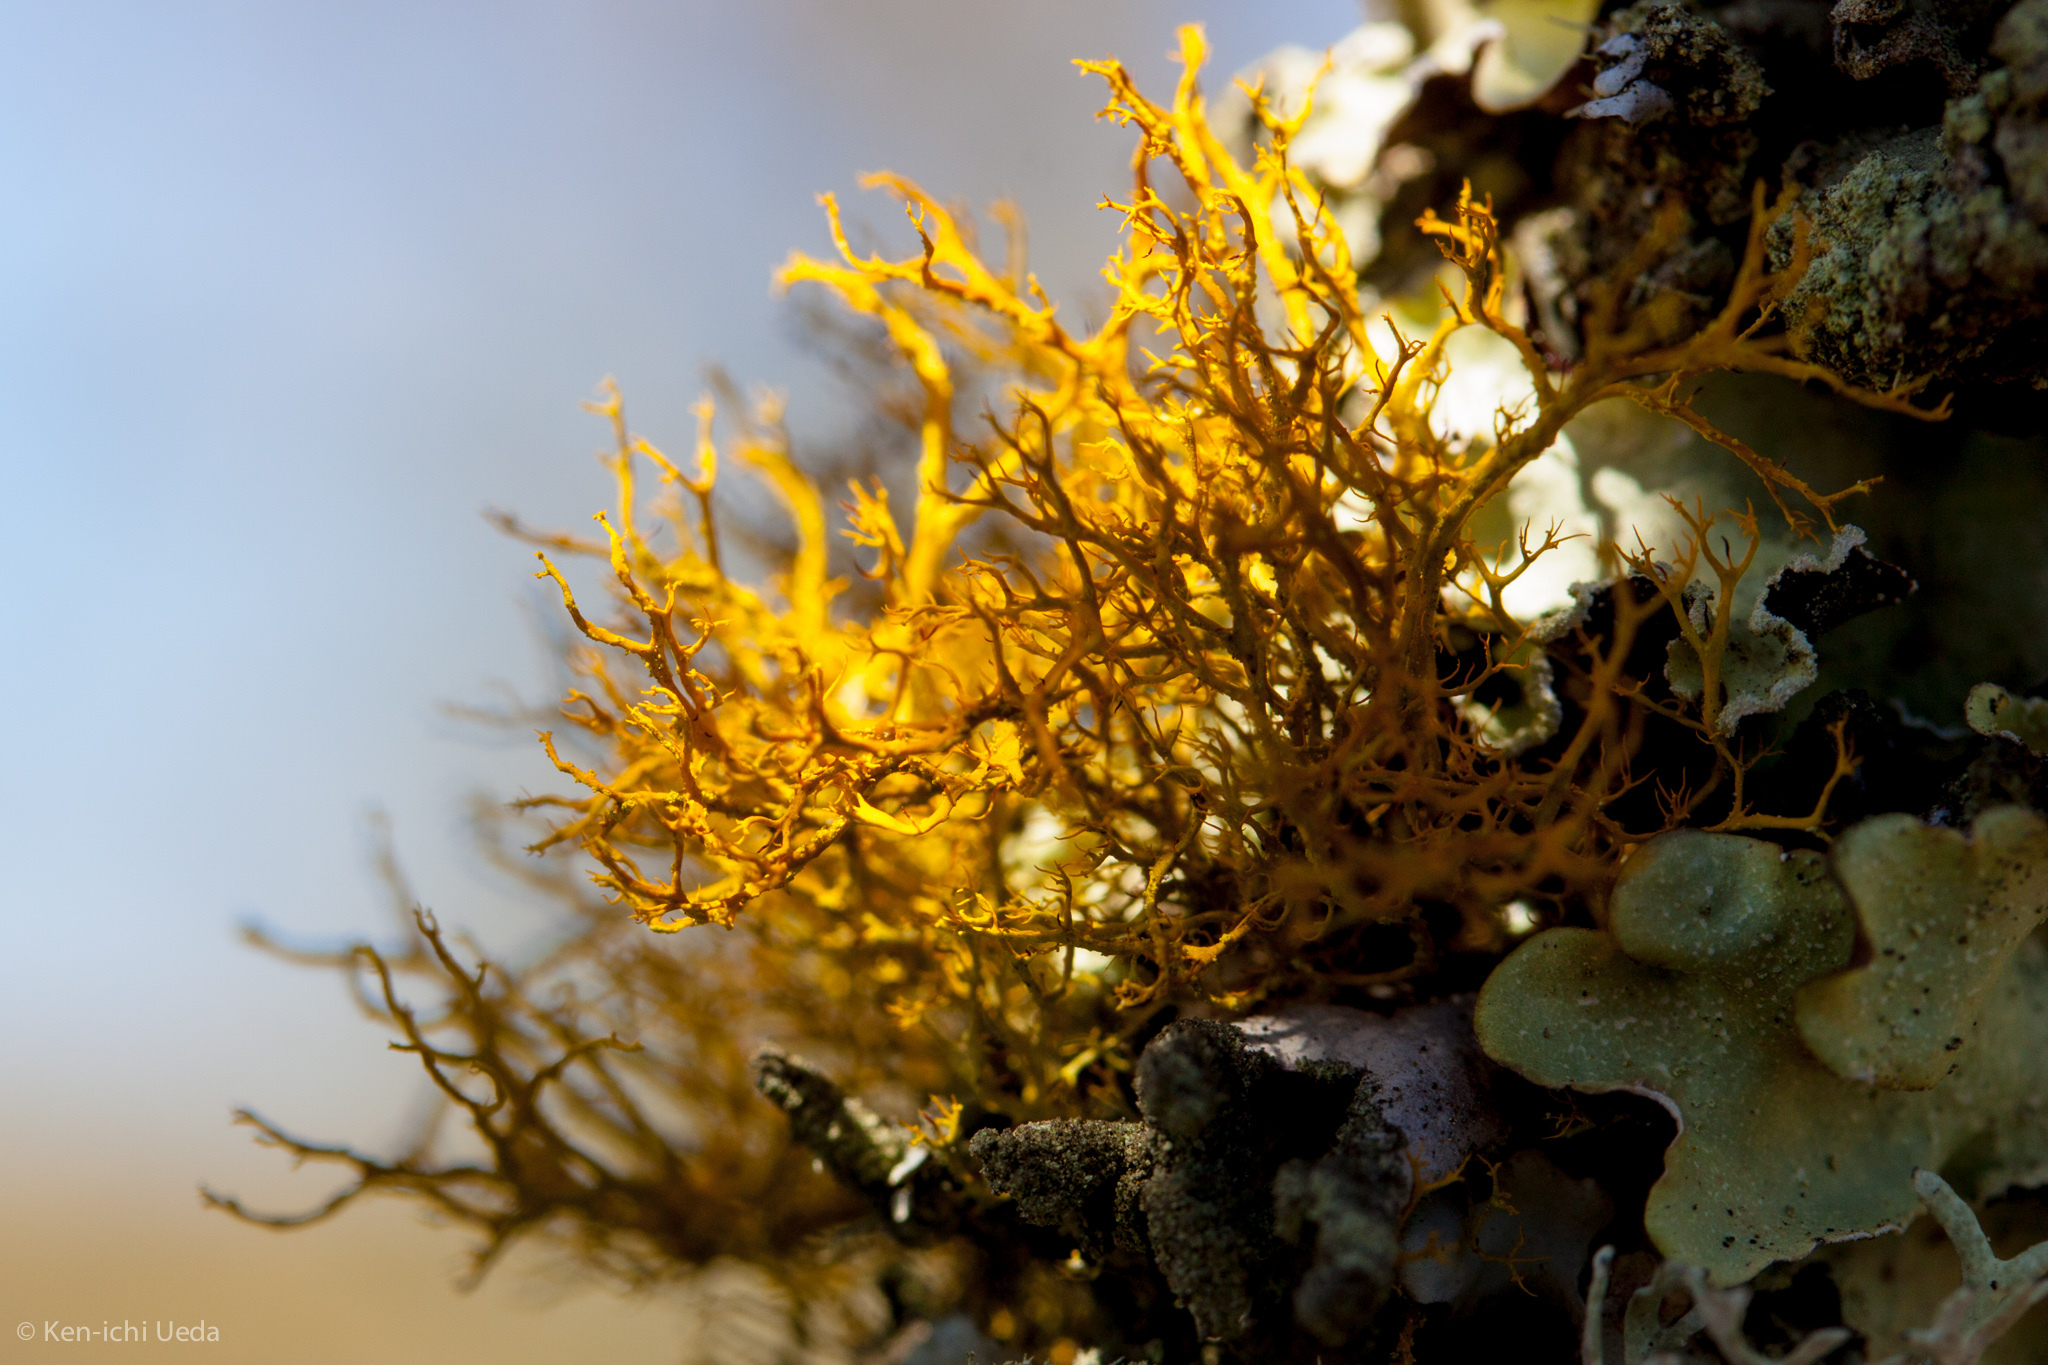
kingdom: Fungi
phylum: Ascomycota
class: Lecanoromycetes
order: Teloschistales
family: Teloschistaceae
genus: Teloschistes
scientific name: Teloschistes flavicans
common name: Golden hair-lichen
